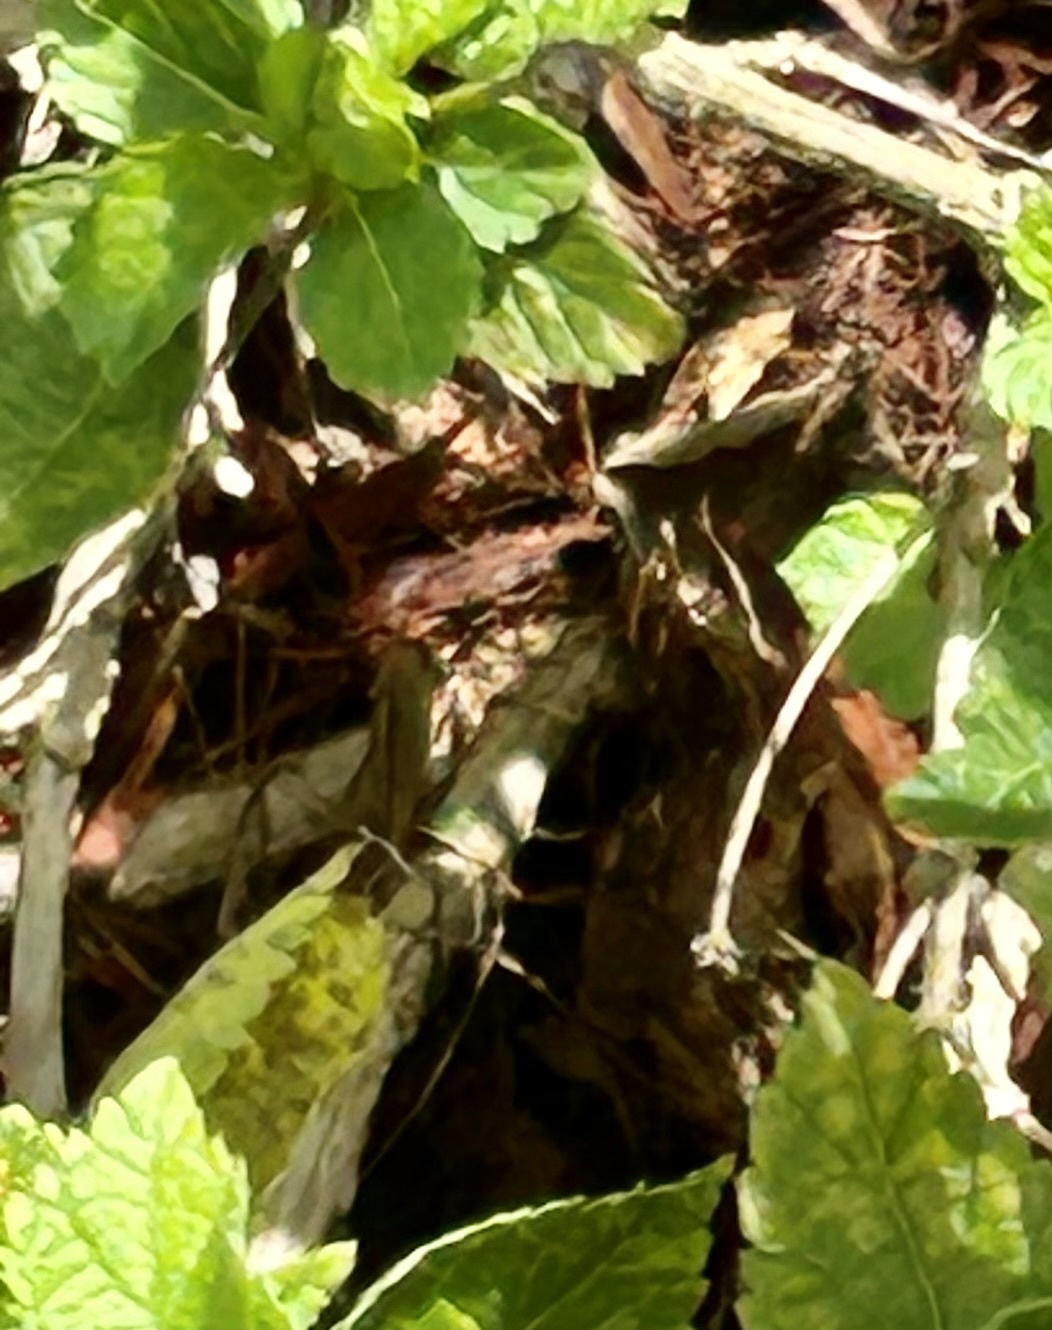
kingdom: Animalia
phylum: Arthropoda
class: Insecta
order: Lepidoptera
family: Hesperiidae
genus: Urbanus
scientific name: Urbanus proteus
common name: Long-tailed skipper
